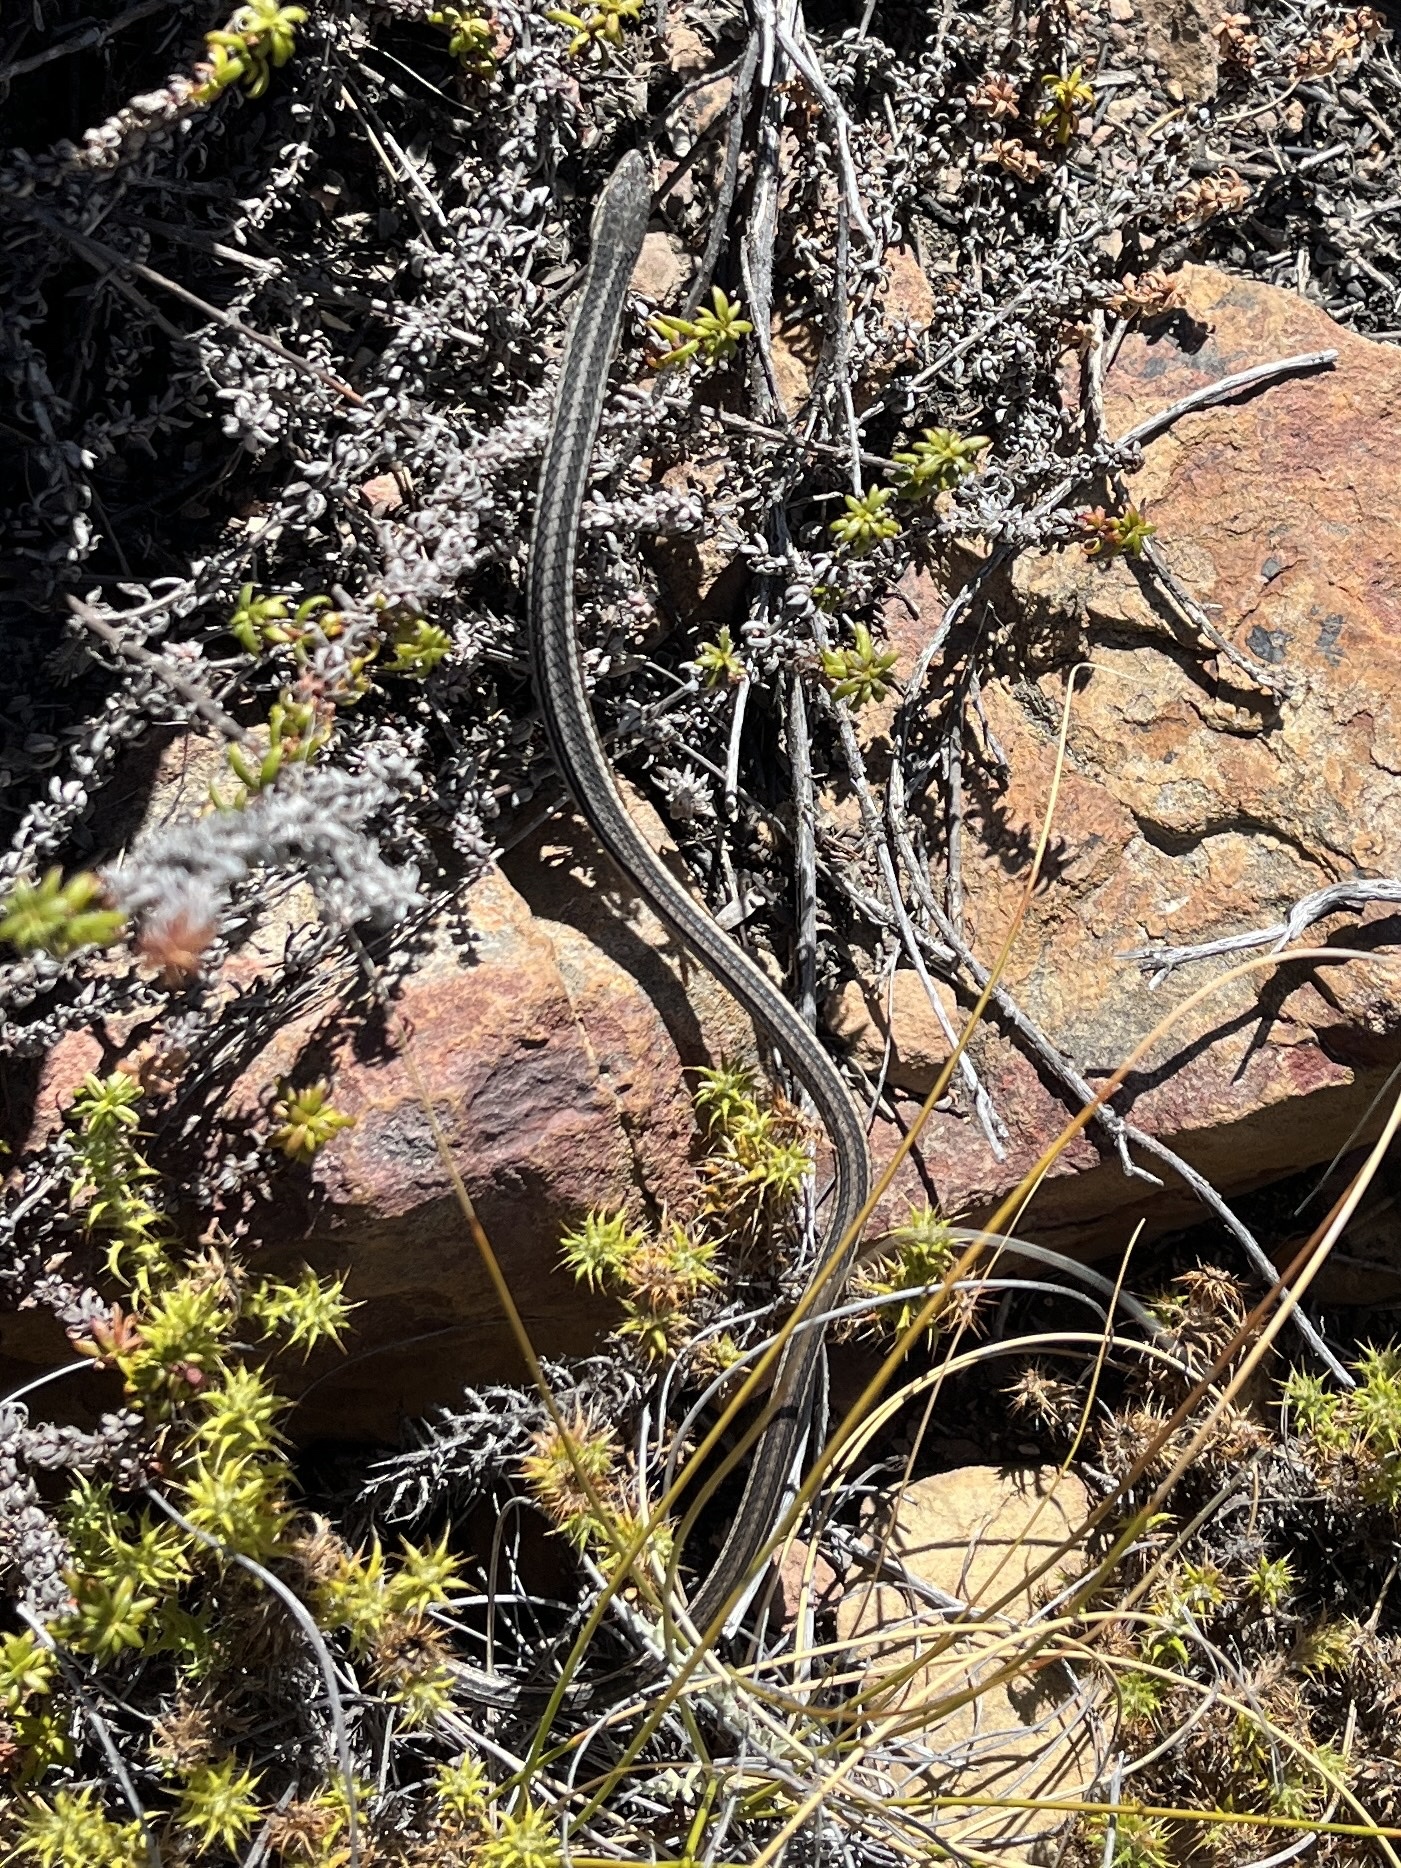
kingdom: Animalia
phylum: Chordata
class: Squamata
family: Cordylidae
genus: Chamaesaura
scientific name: Chamaesaura anguina
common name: Cape snake lizard
